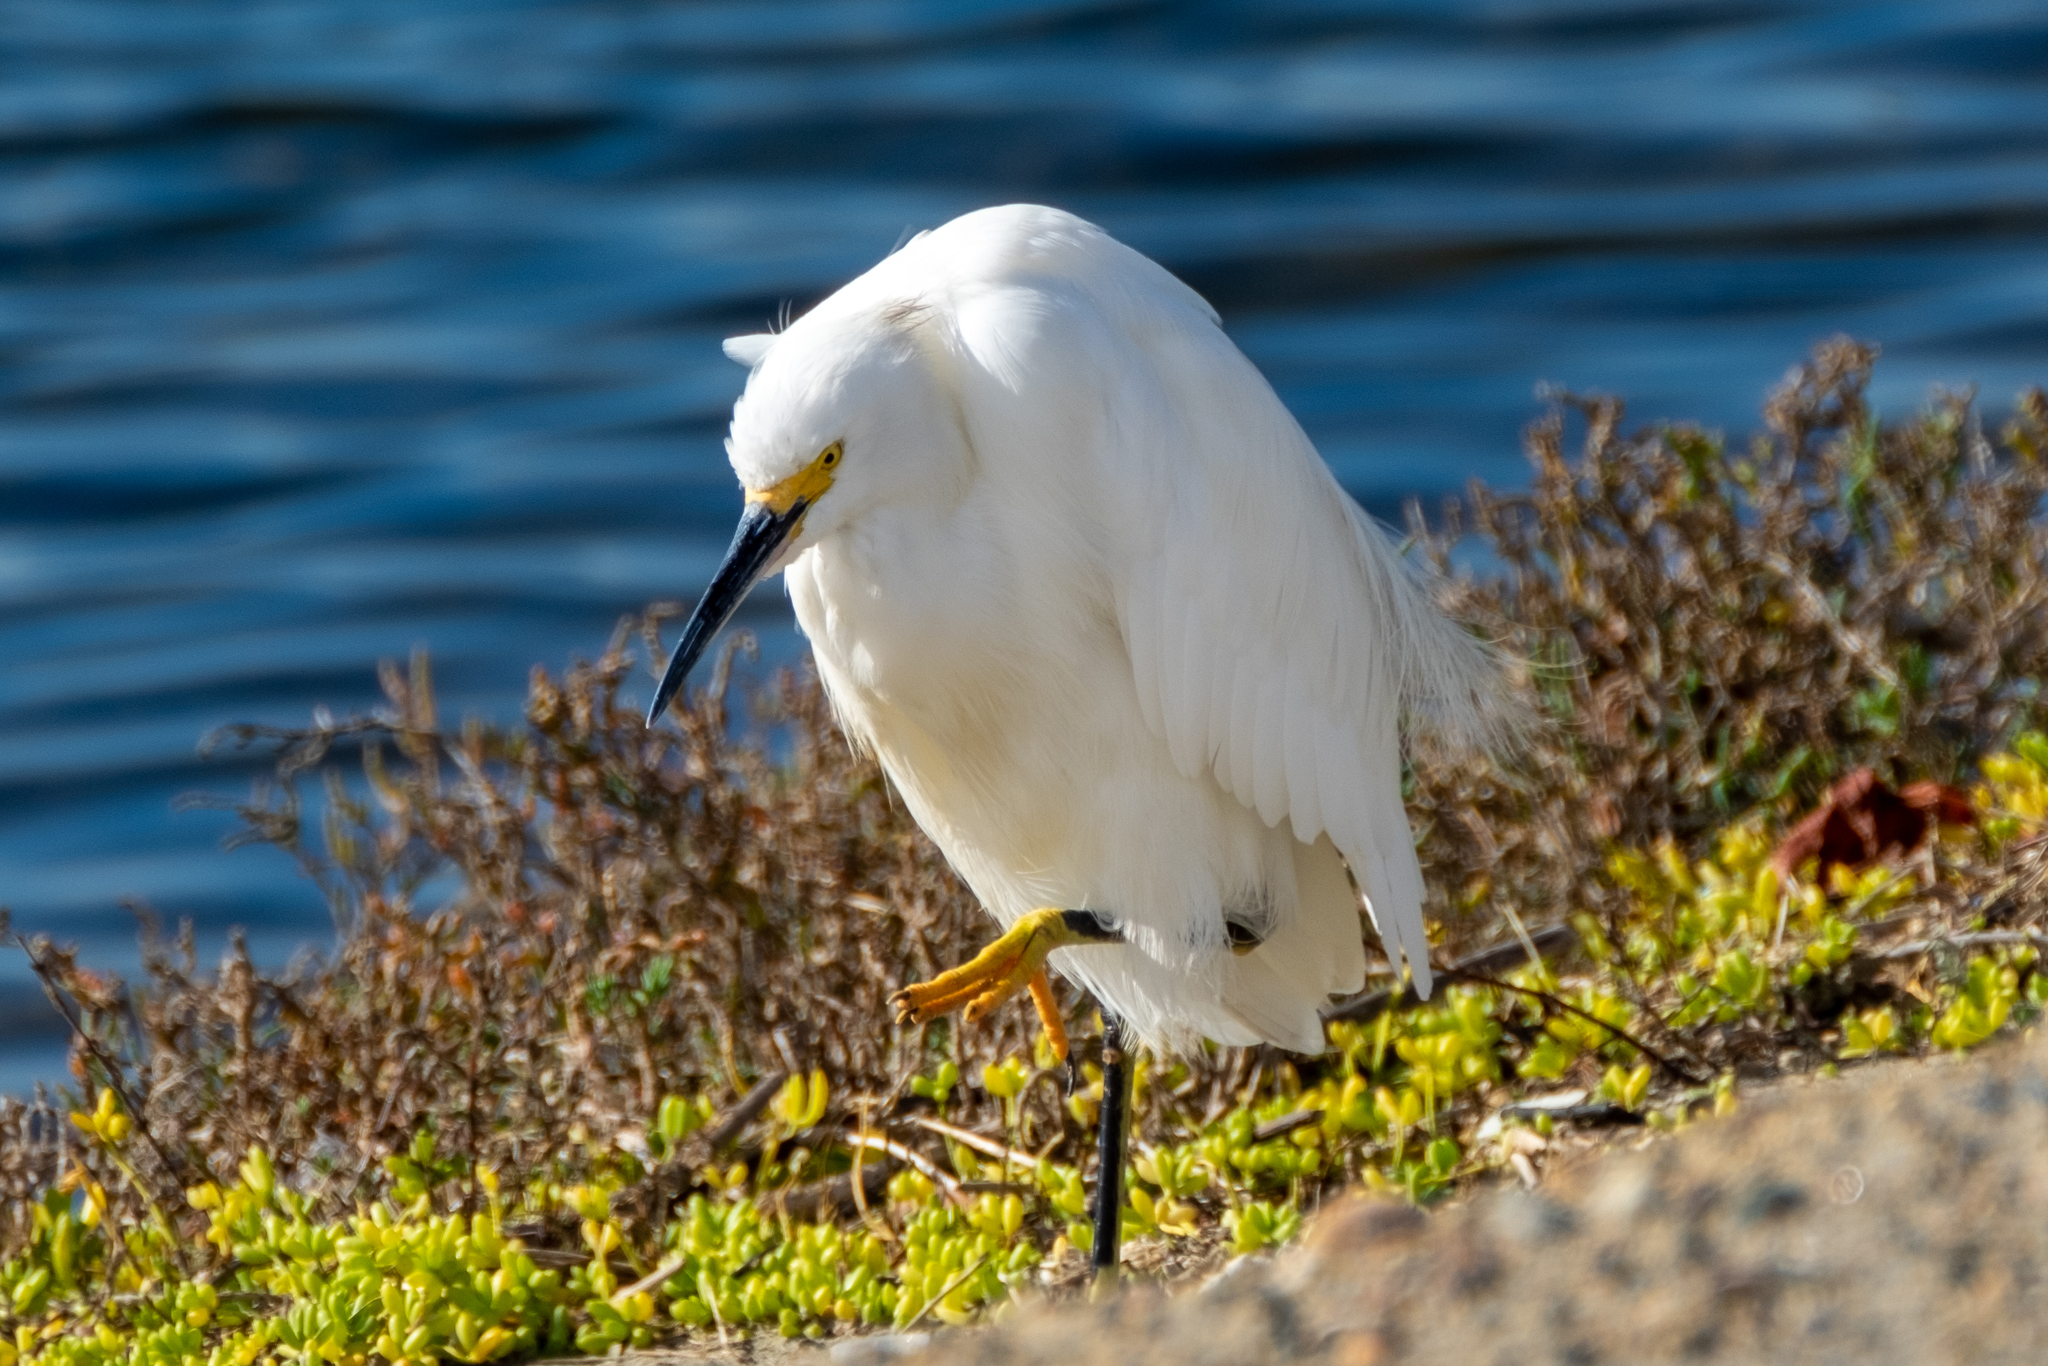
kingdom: Animalia
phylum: Chordata
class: Aves
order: Pelecaniformes
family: Ardeidae
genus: Egretta
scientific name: Egretta thula
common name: Snowy egret
